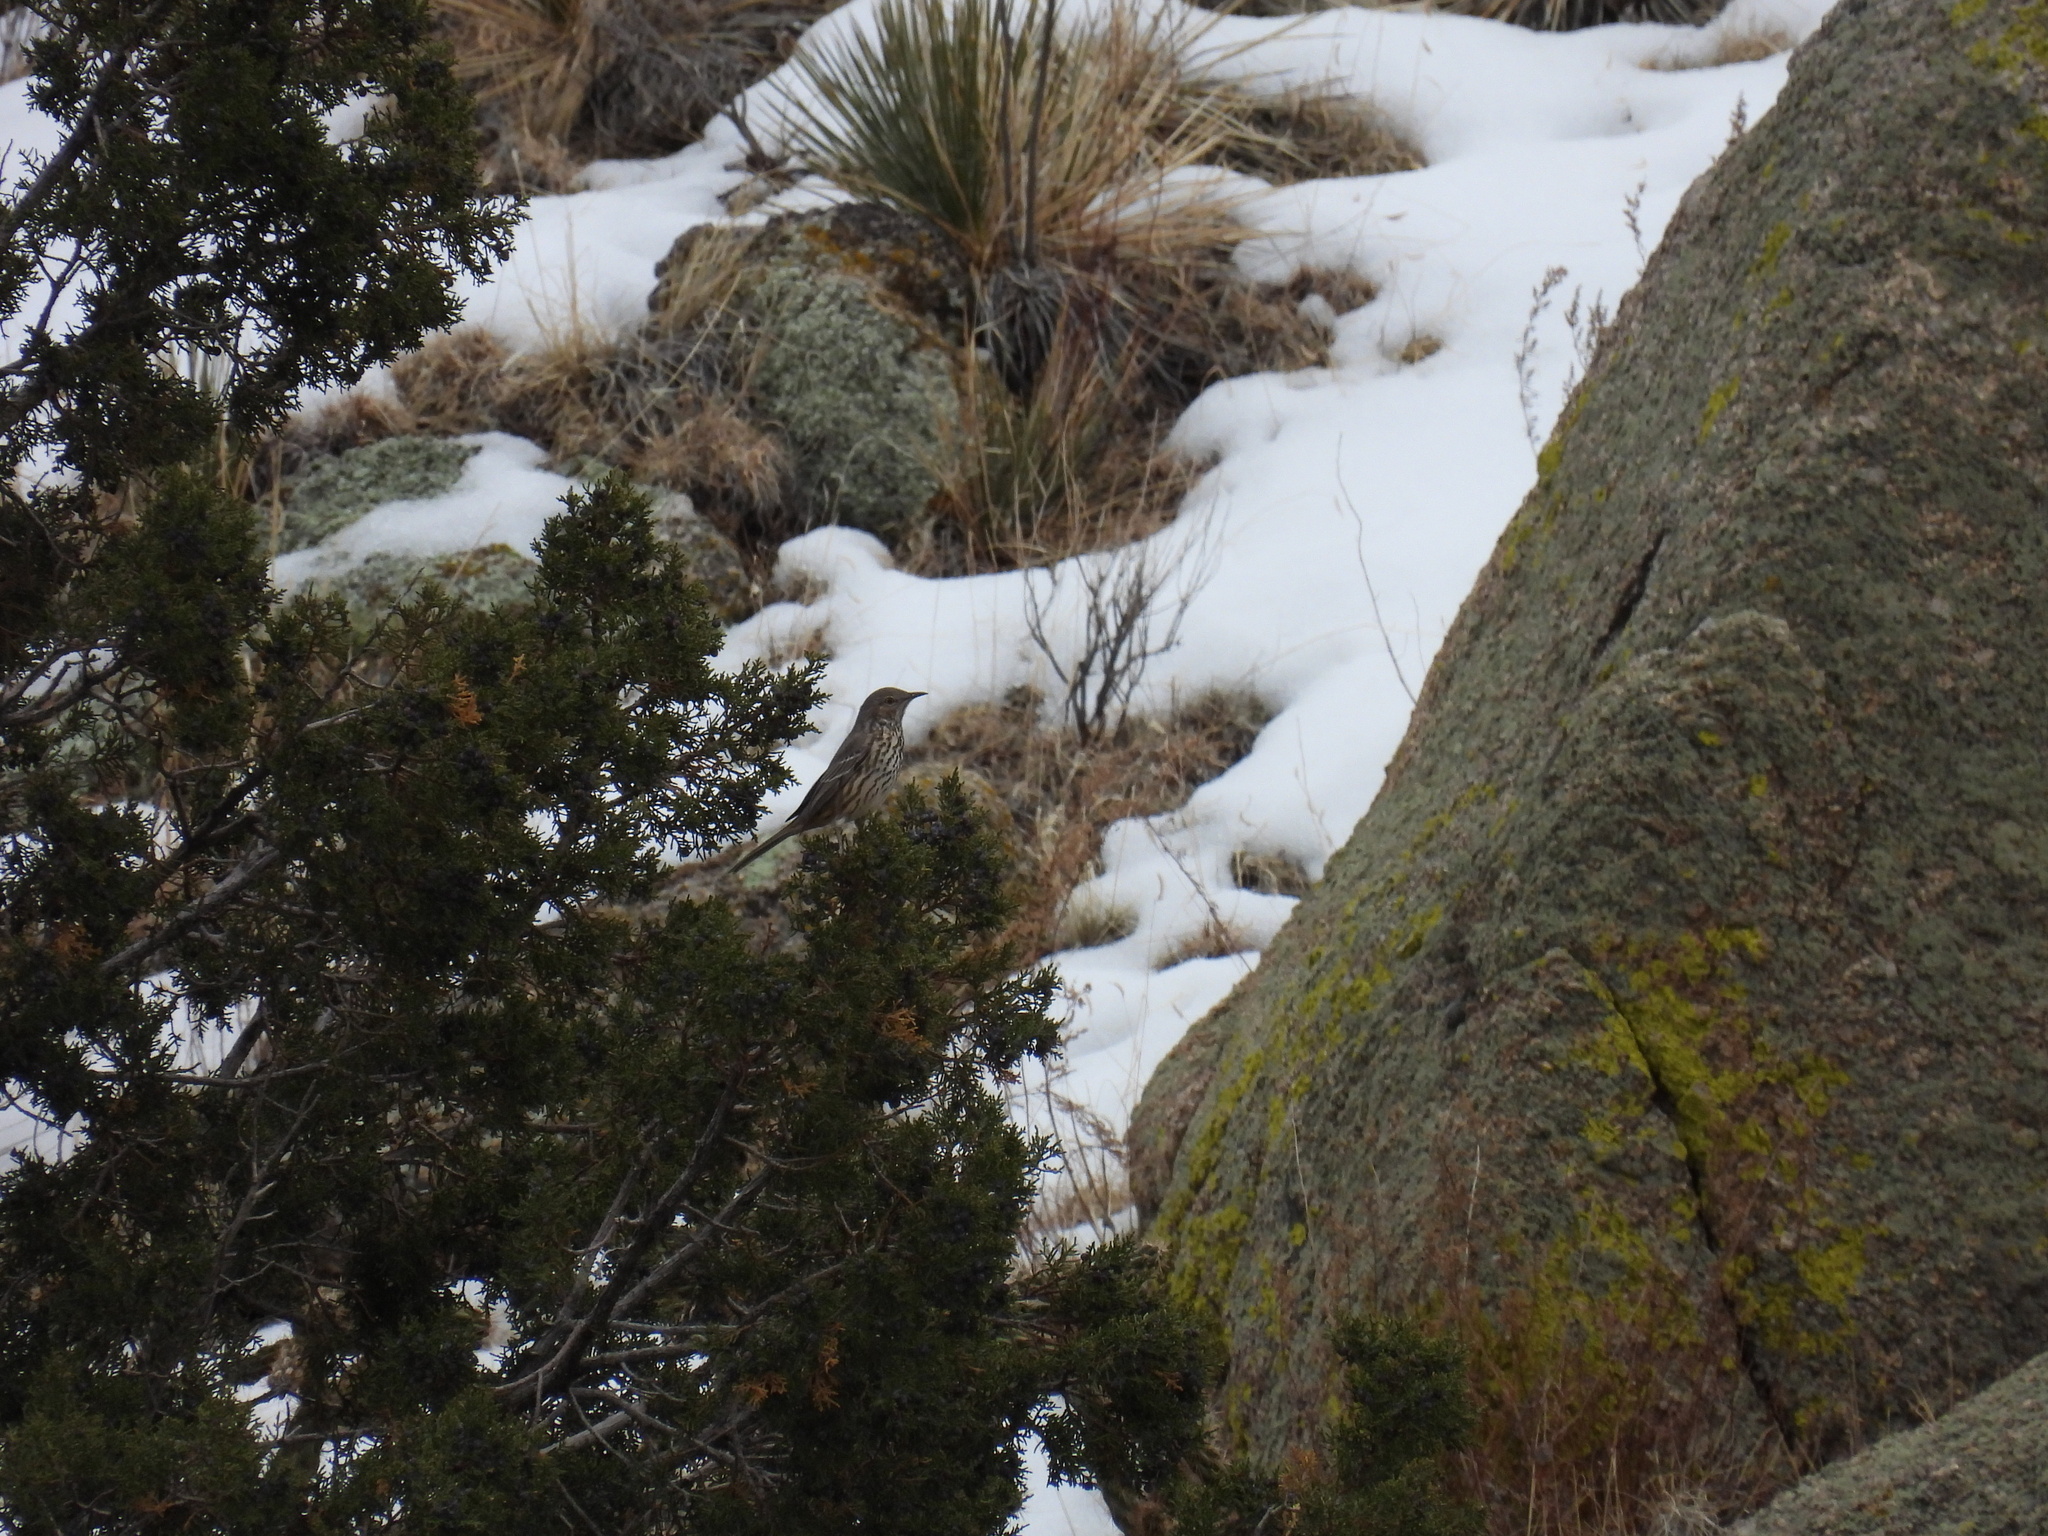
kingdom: Animalia
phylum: Chordata
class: Aves
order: Passeriformes
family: Mimidae
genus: Oreoscoptes
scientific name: Oreoscoptes montanus
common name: Sage thrasher
